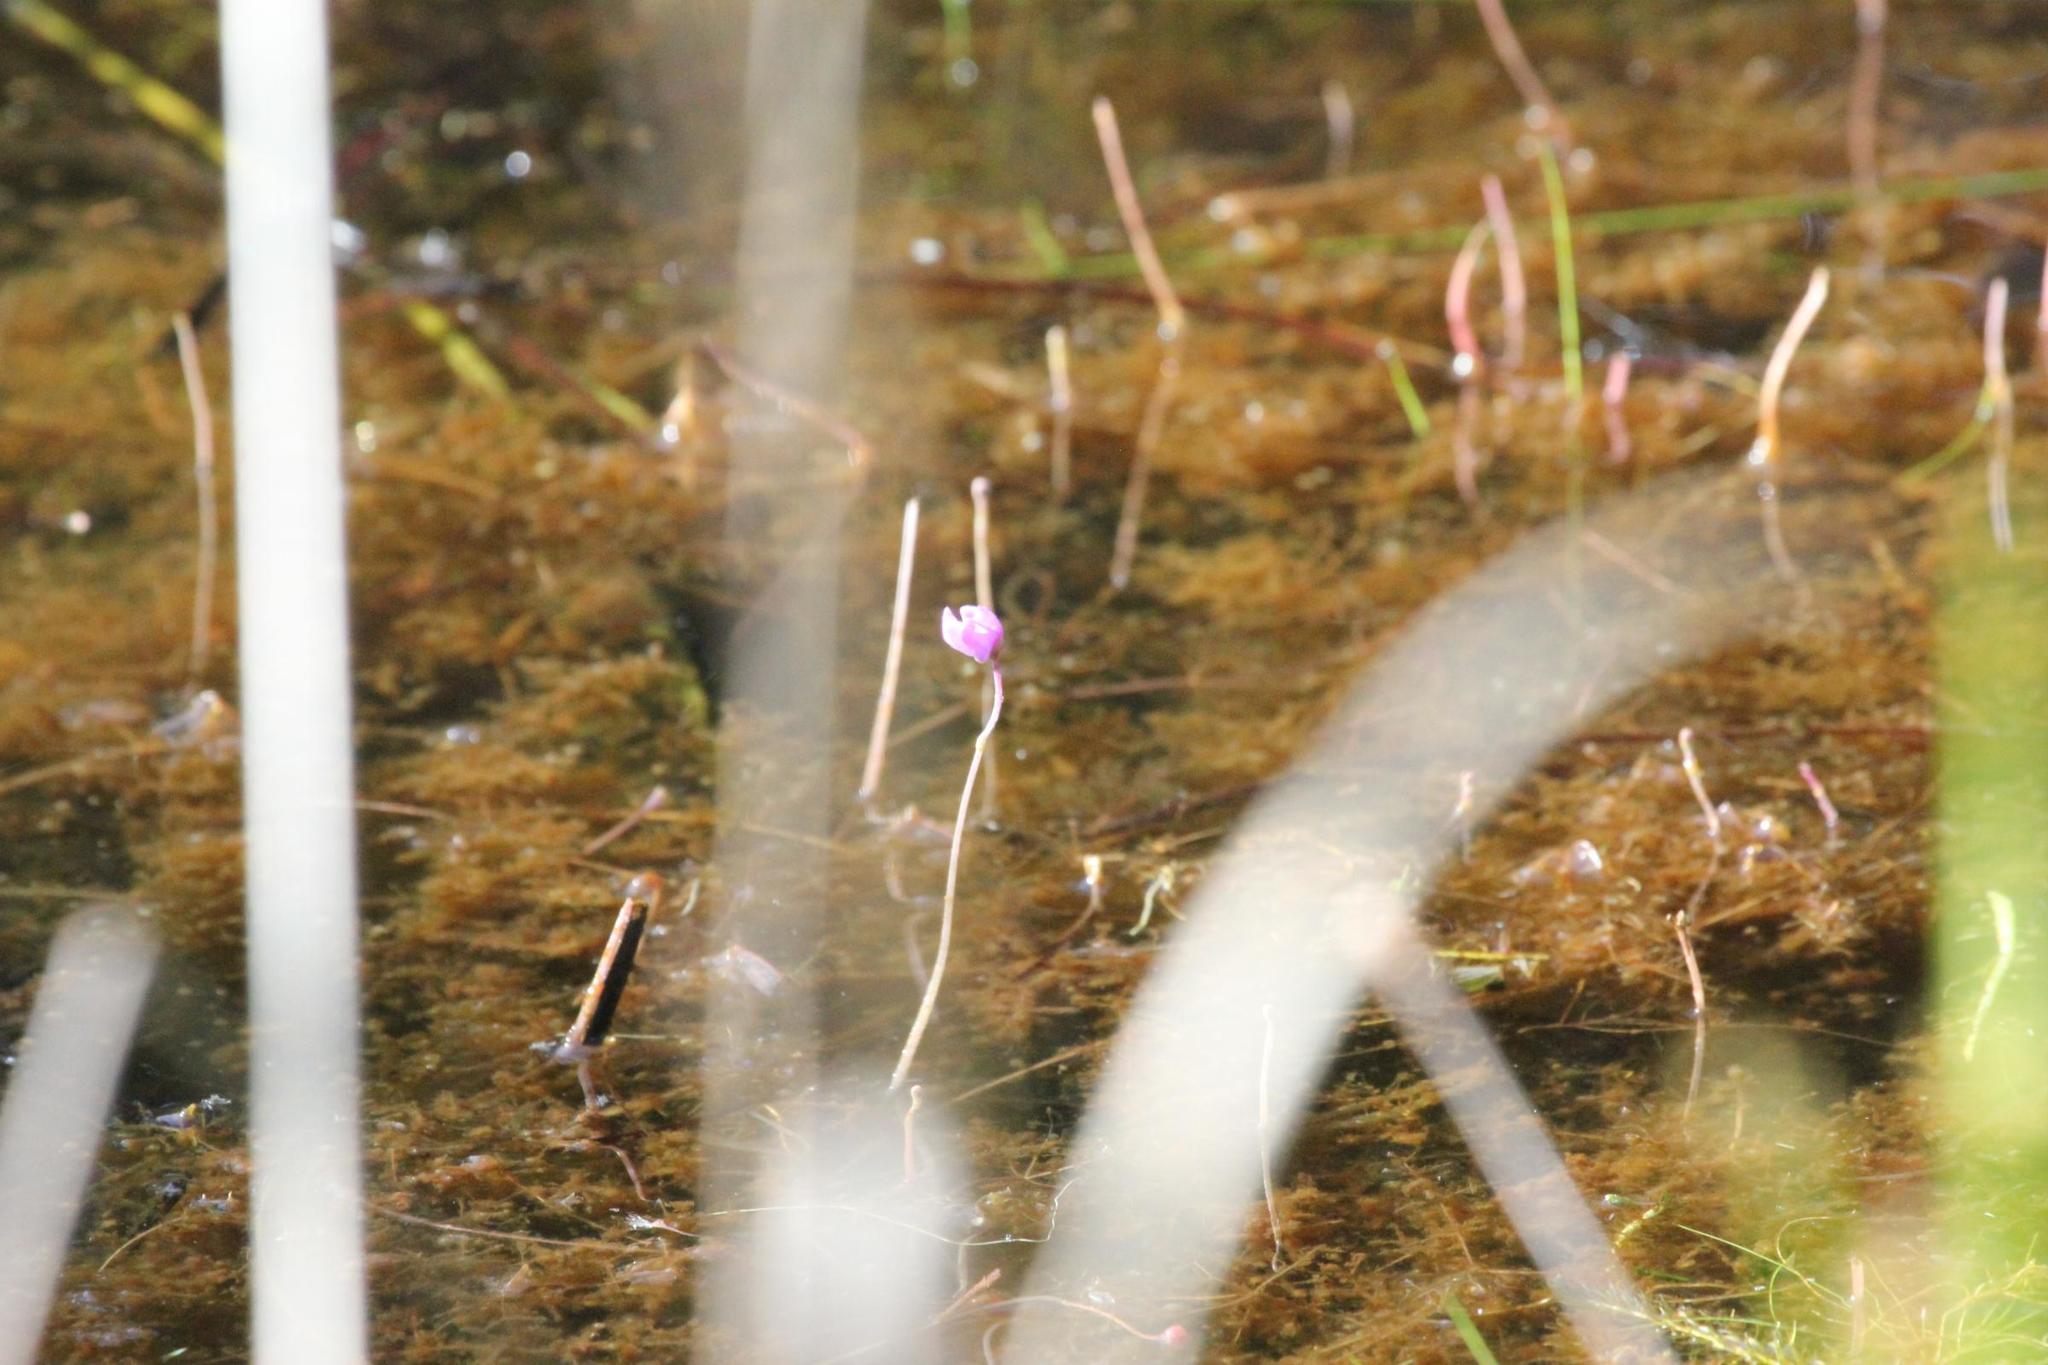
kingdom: Plantae
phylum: Tracheophyta
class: Magnoliopsida
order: Lamiales
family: Lentibulariaceae
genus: Utricularia
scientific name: Utricularia purpurea
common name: Eastern purple bladderwort
